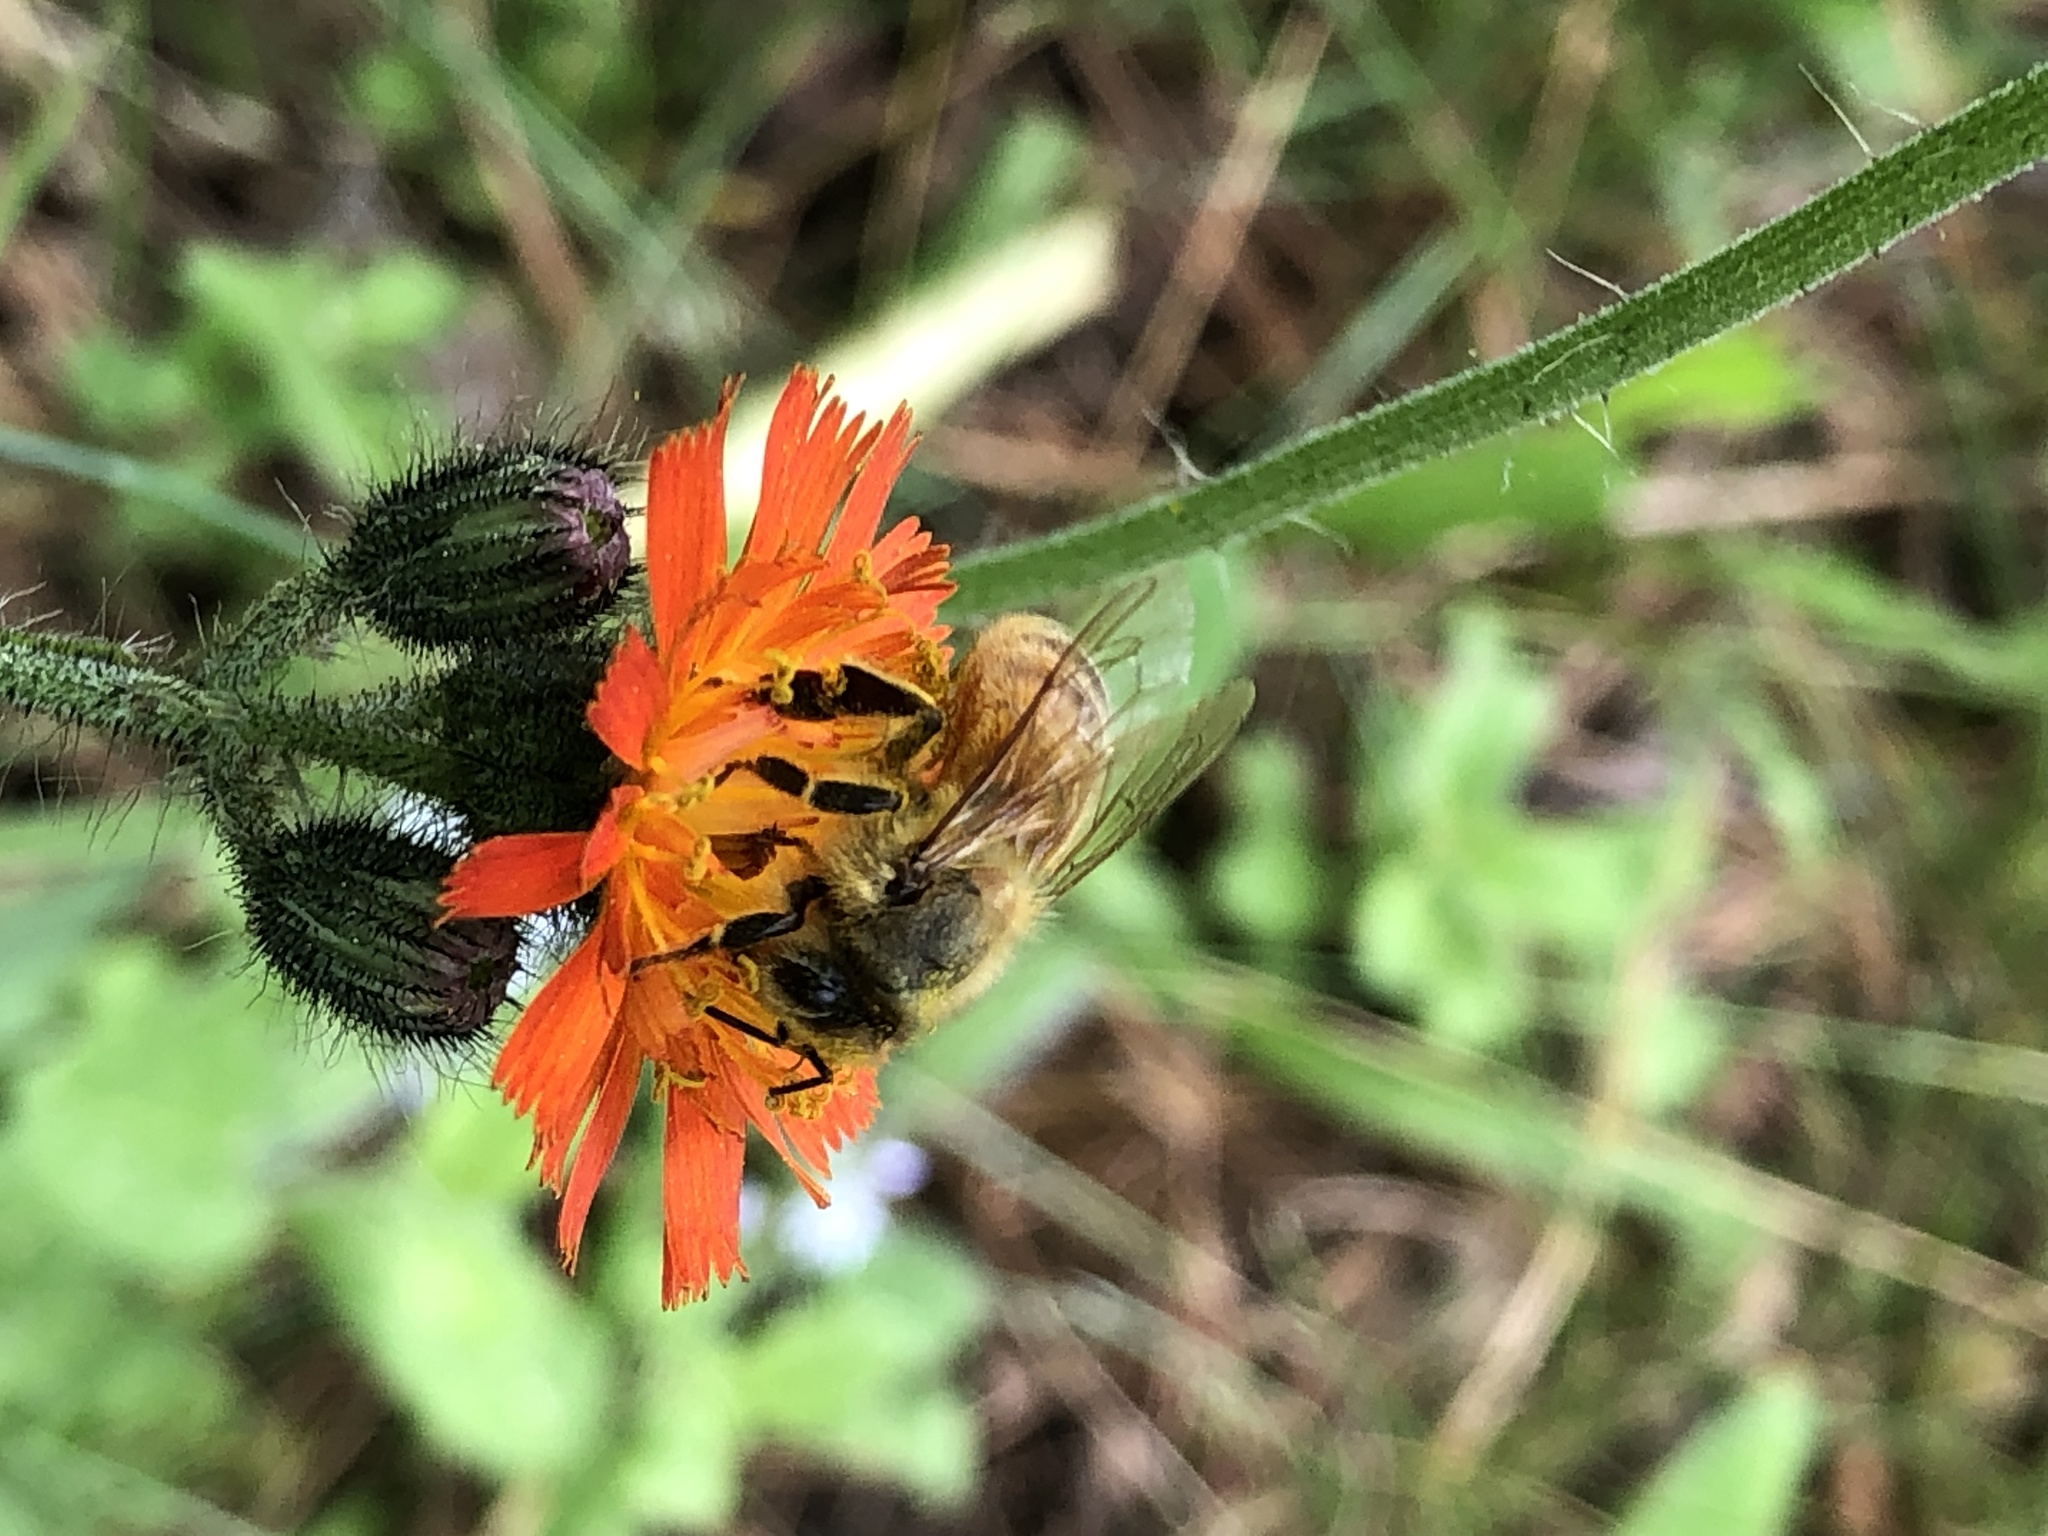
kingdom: Plantae
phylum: Tracheophyta
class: Magnoliopsida
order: Asterales
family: Asteraceae
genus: Pilosella
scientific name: Pilosella aurantiaca
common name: Fox-and-cubs
